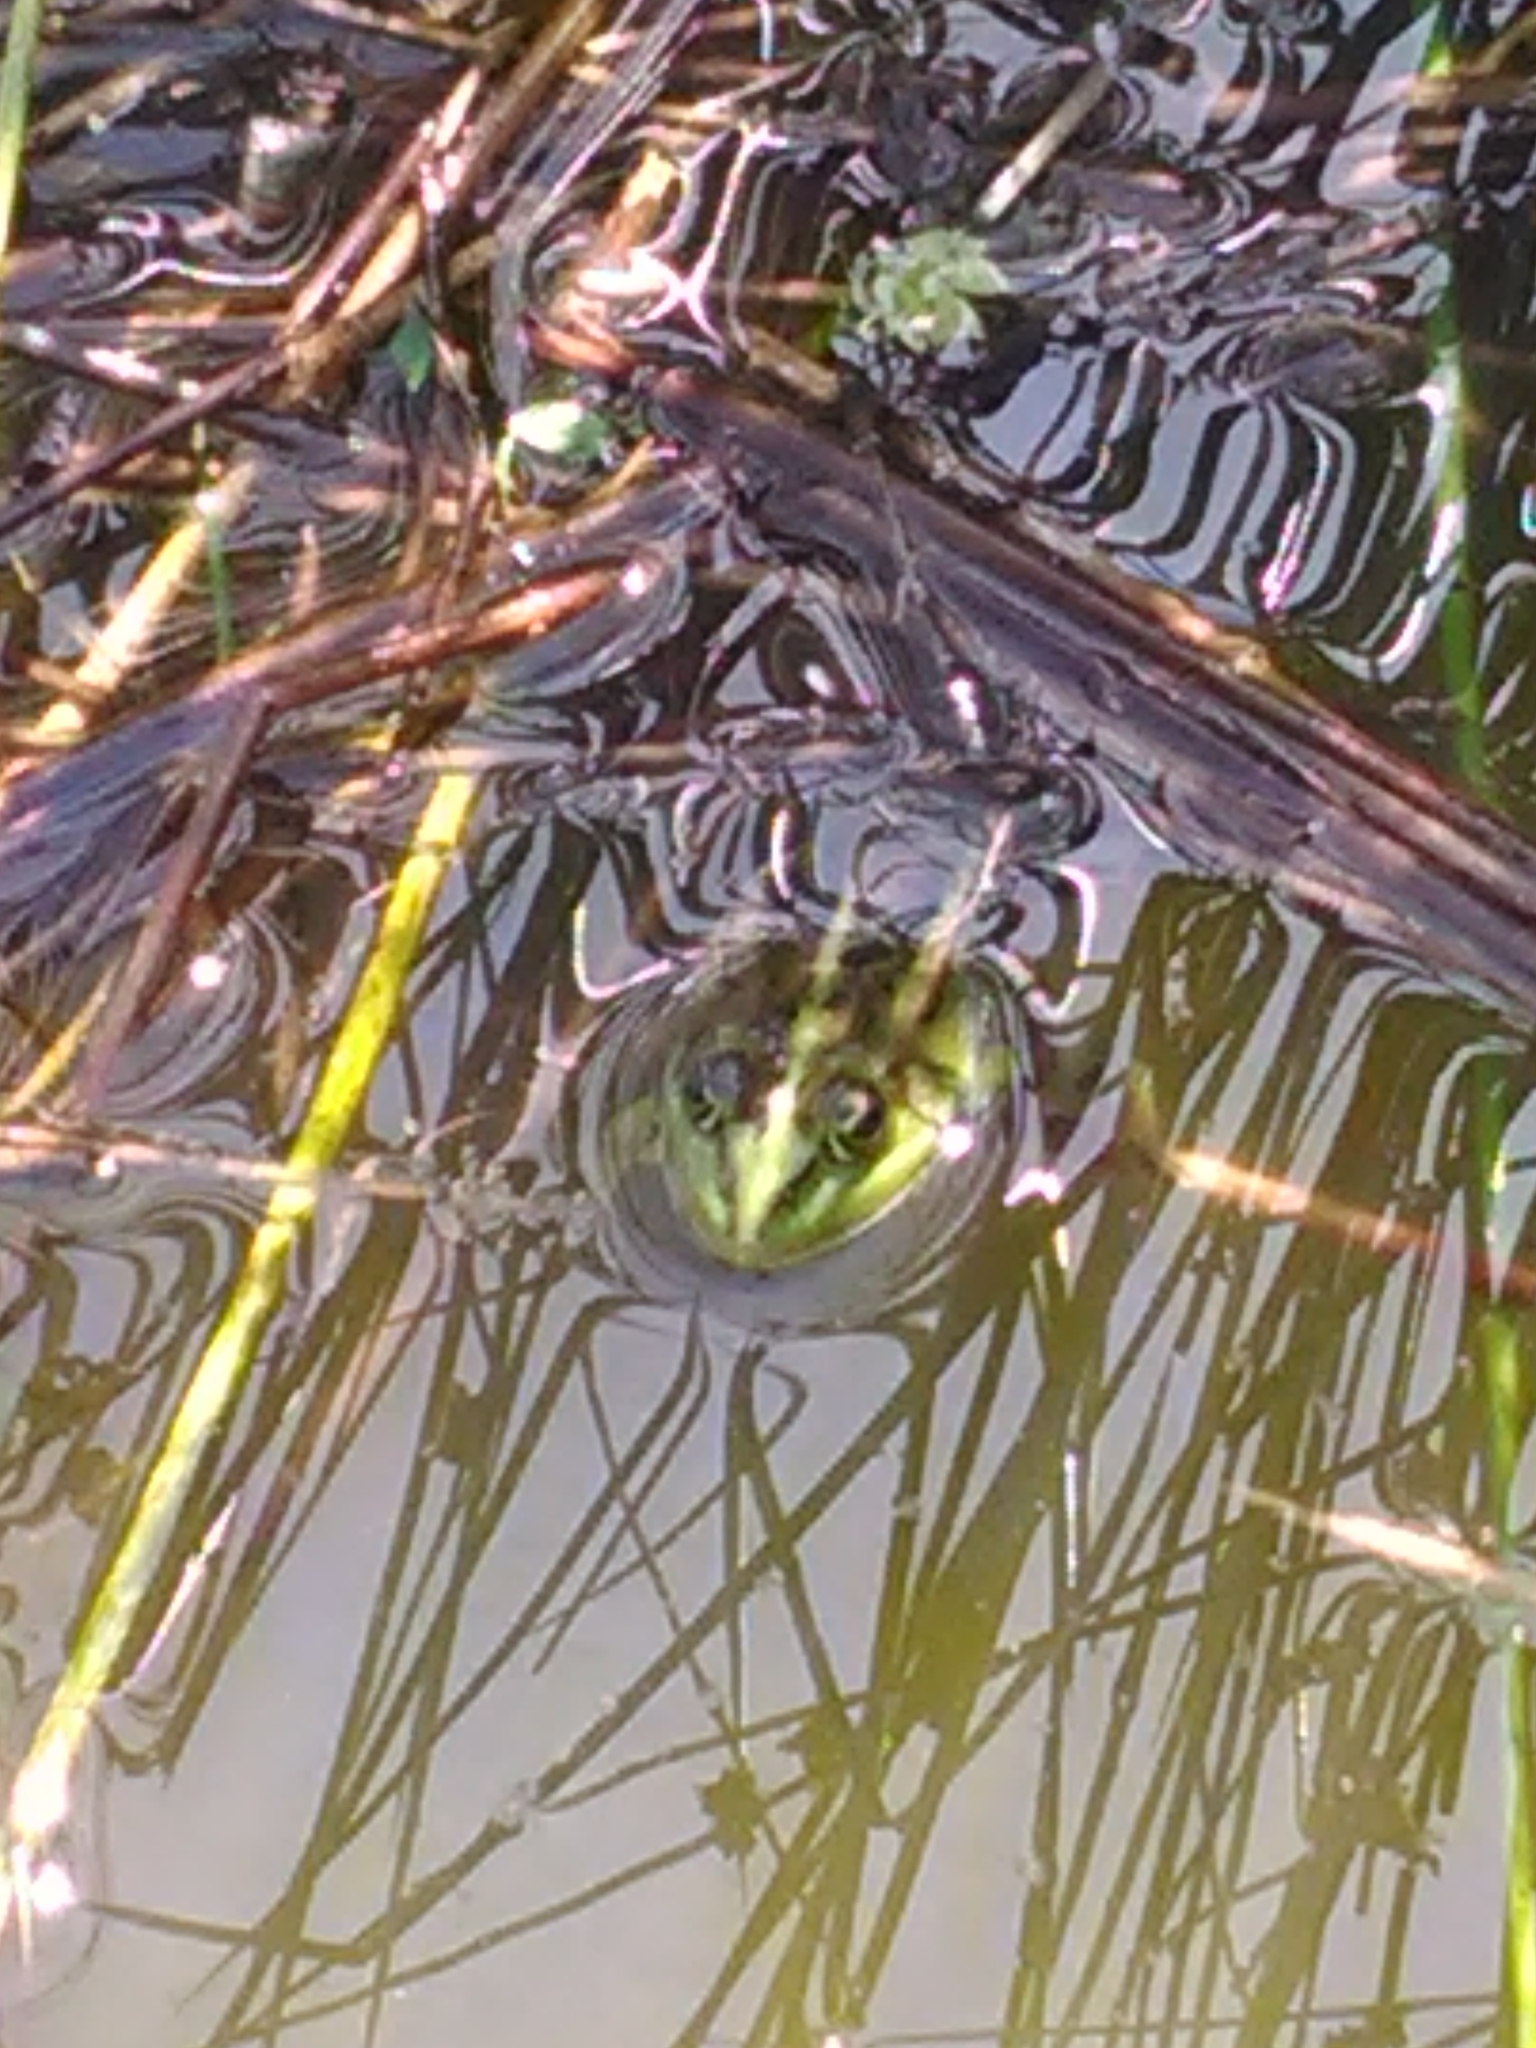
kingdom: Animalia
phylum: Chordata
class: Amphibia
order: Anura
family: Ranidae
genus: Pelophylax
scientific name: Pelophylax
